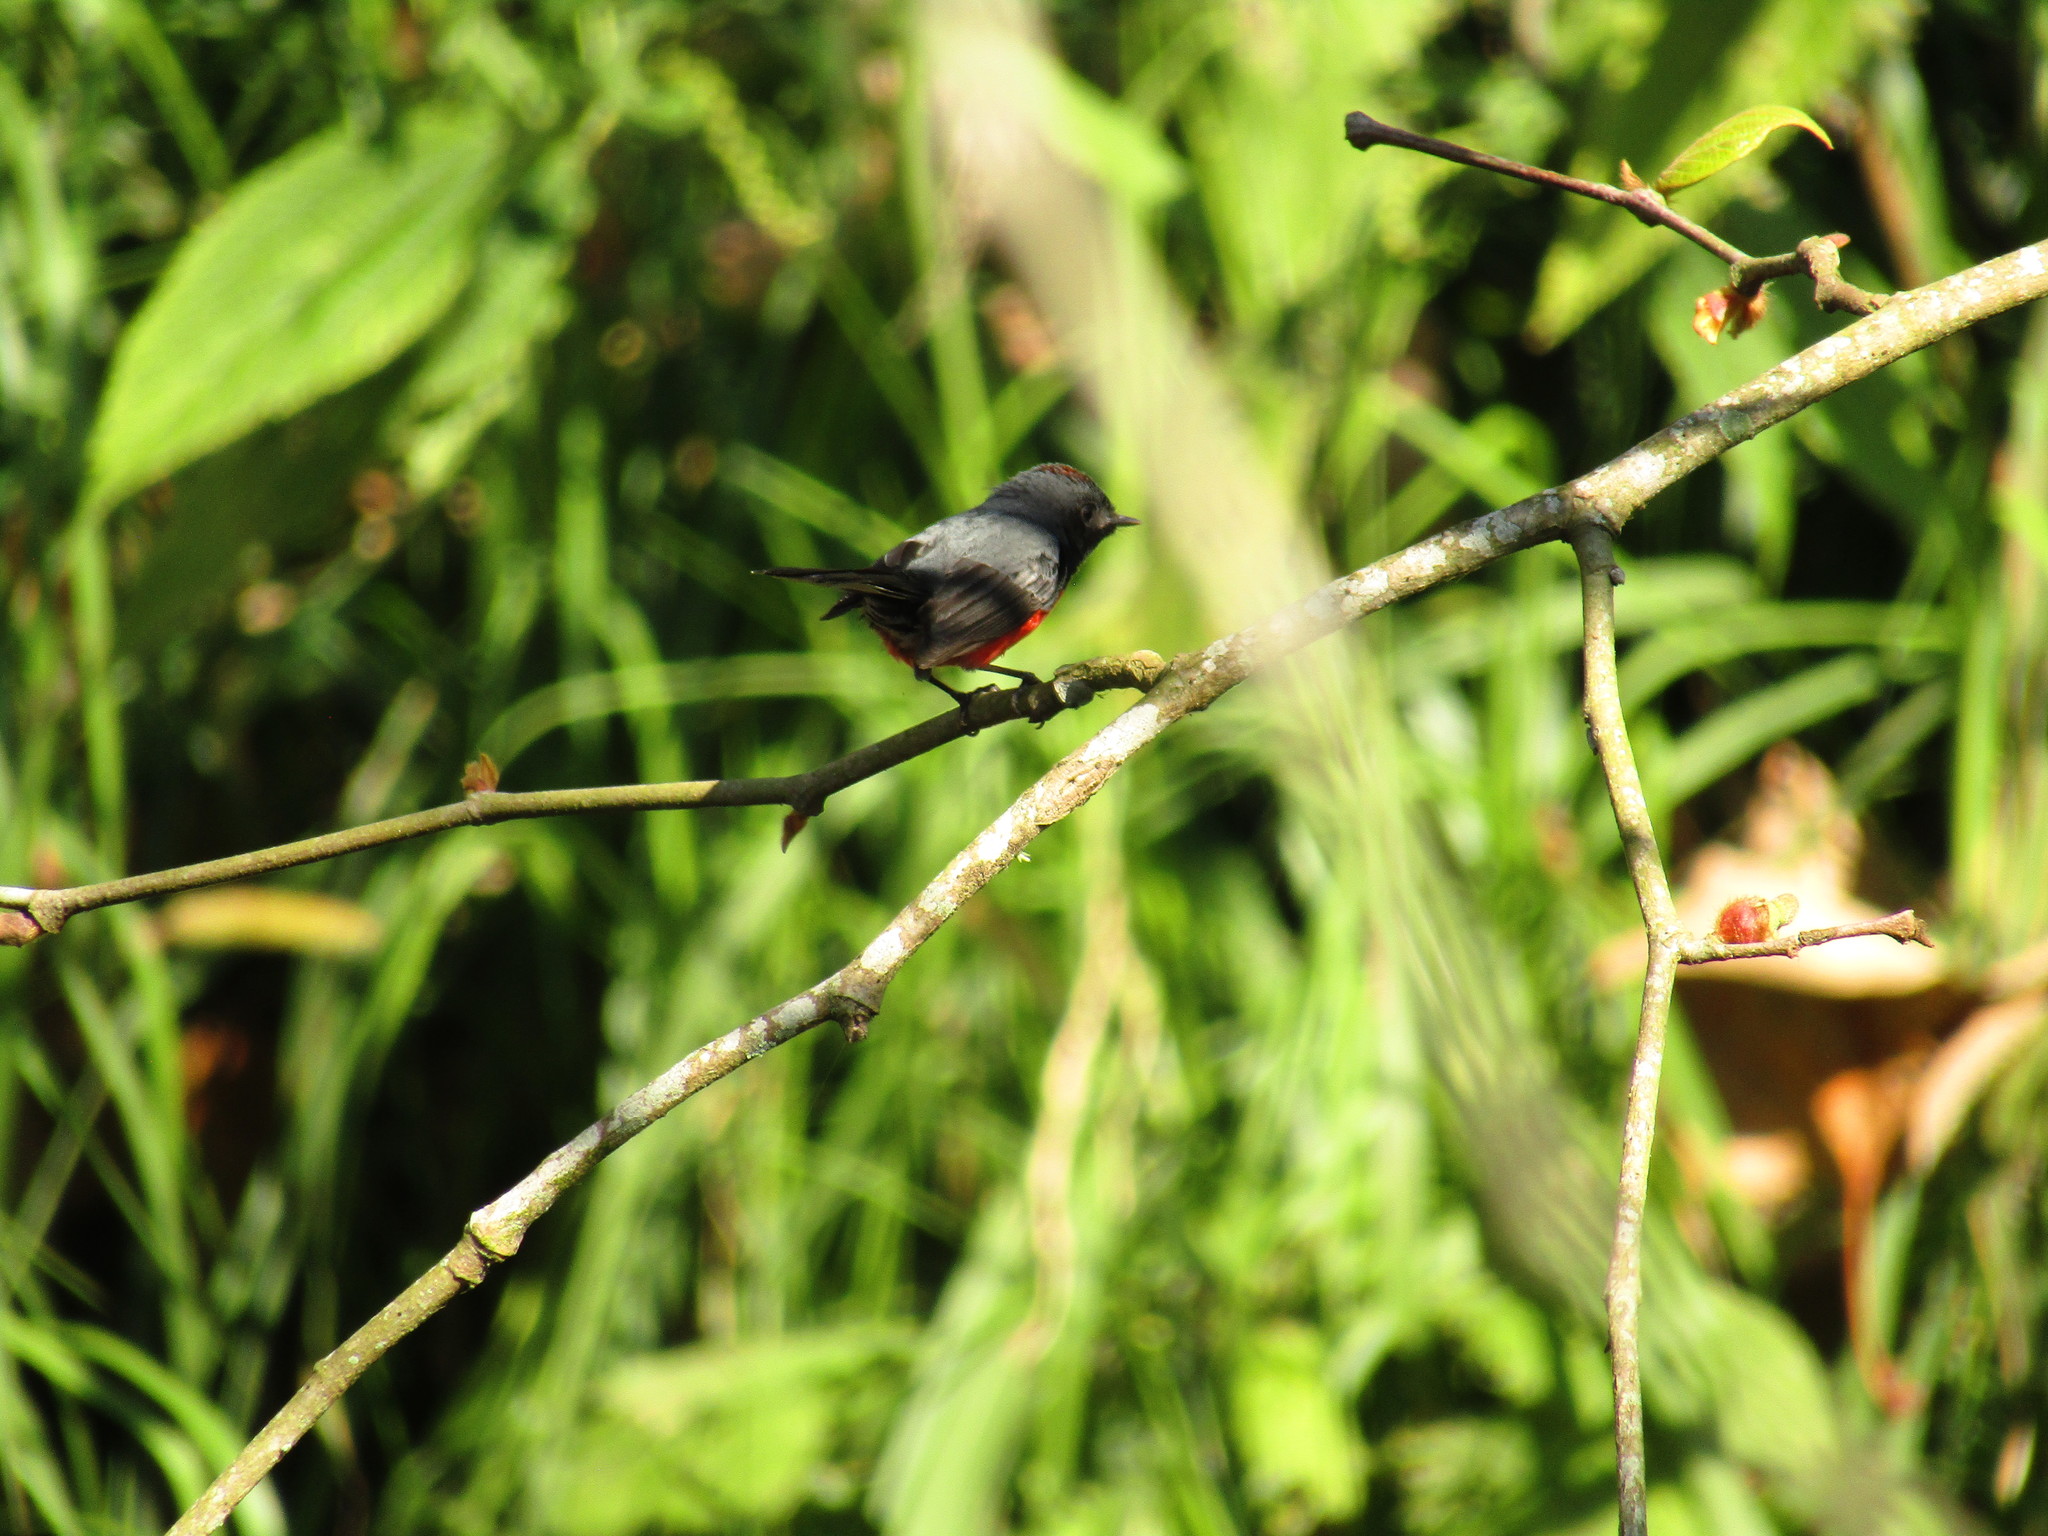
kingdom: Animalia
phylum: Chordata
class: Aves
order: Passeriformes
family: Parulidae
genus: Myioborus
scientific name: Myioborus miniatus
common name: Slate-throated redstart
